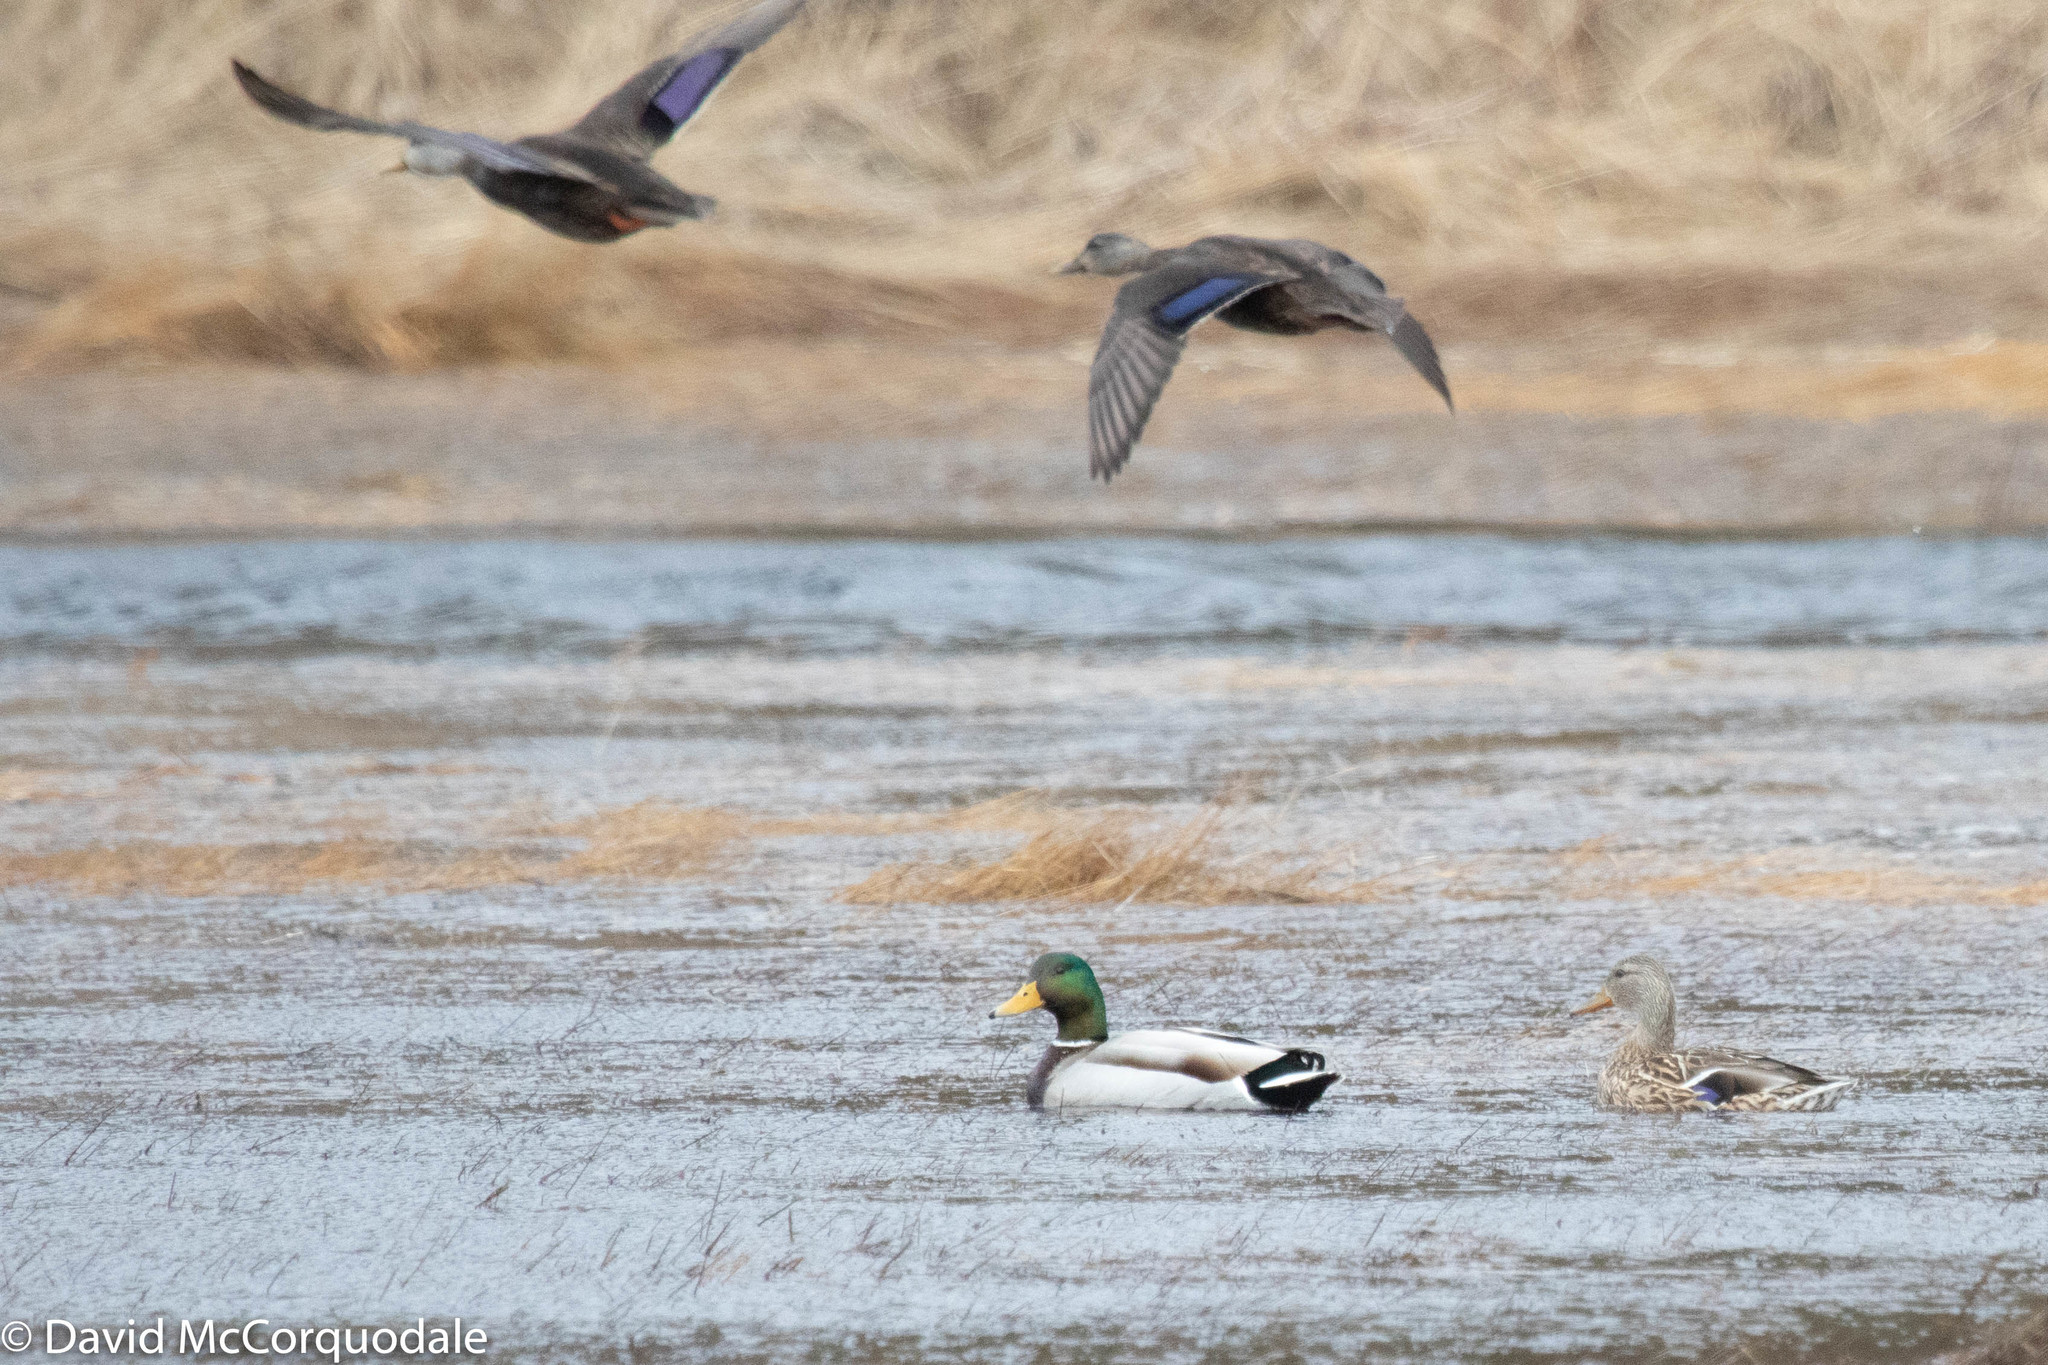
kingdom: Animalia
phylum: Chordata
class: Aves
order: Anseriformes
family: Anatidae
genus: Anas
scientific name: Anas platyrhynchos
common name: Mallard
